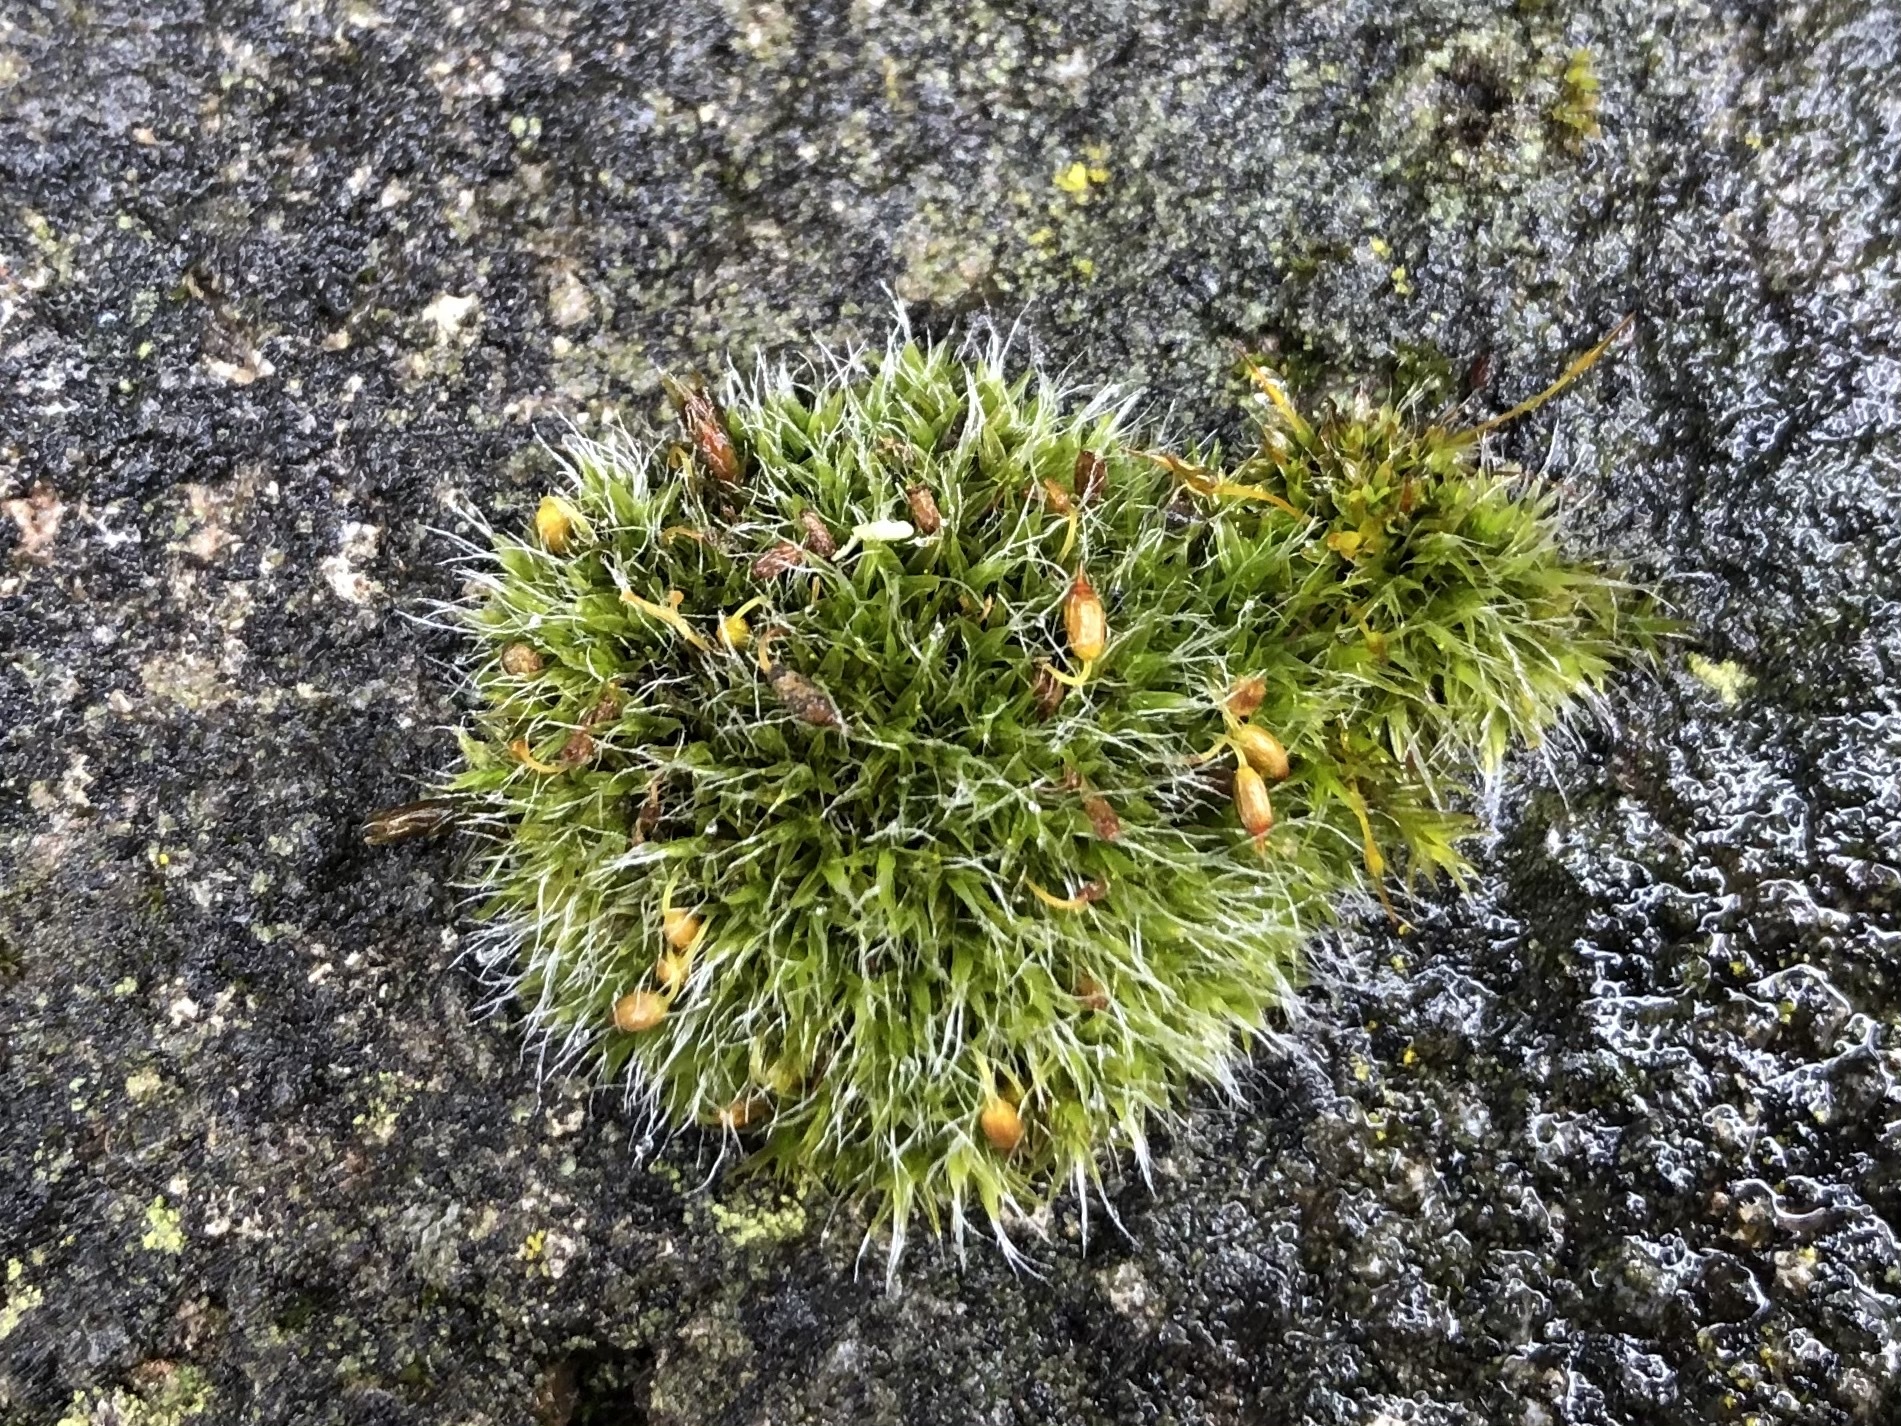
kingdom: Plantae
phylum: Bryophyta
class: Bryopsida
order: Grimmiales
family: Grimmiaceae
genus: Grimmia
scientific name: Grimmia pulvinata
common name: Grey-cushioned grimmia
